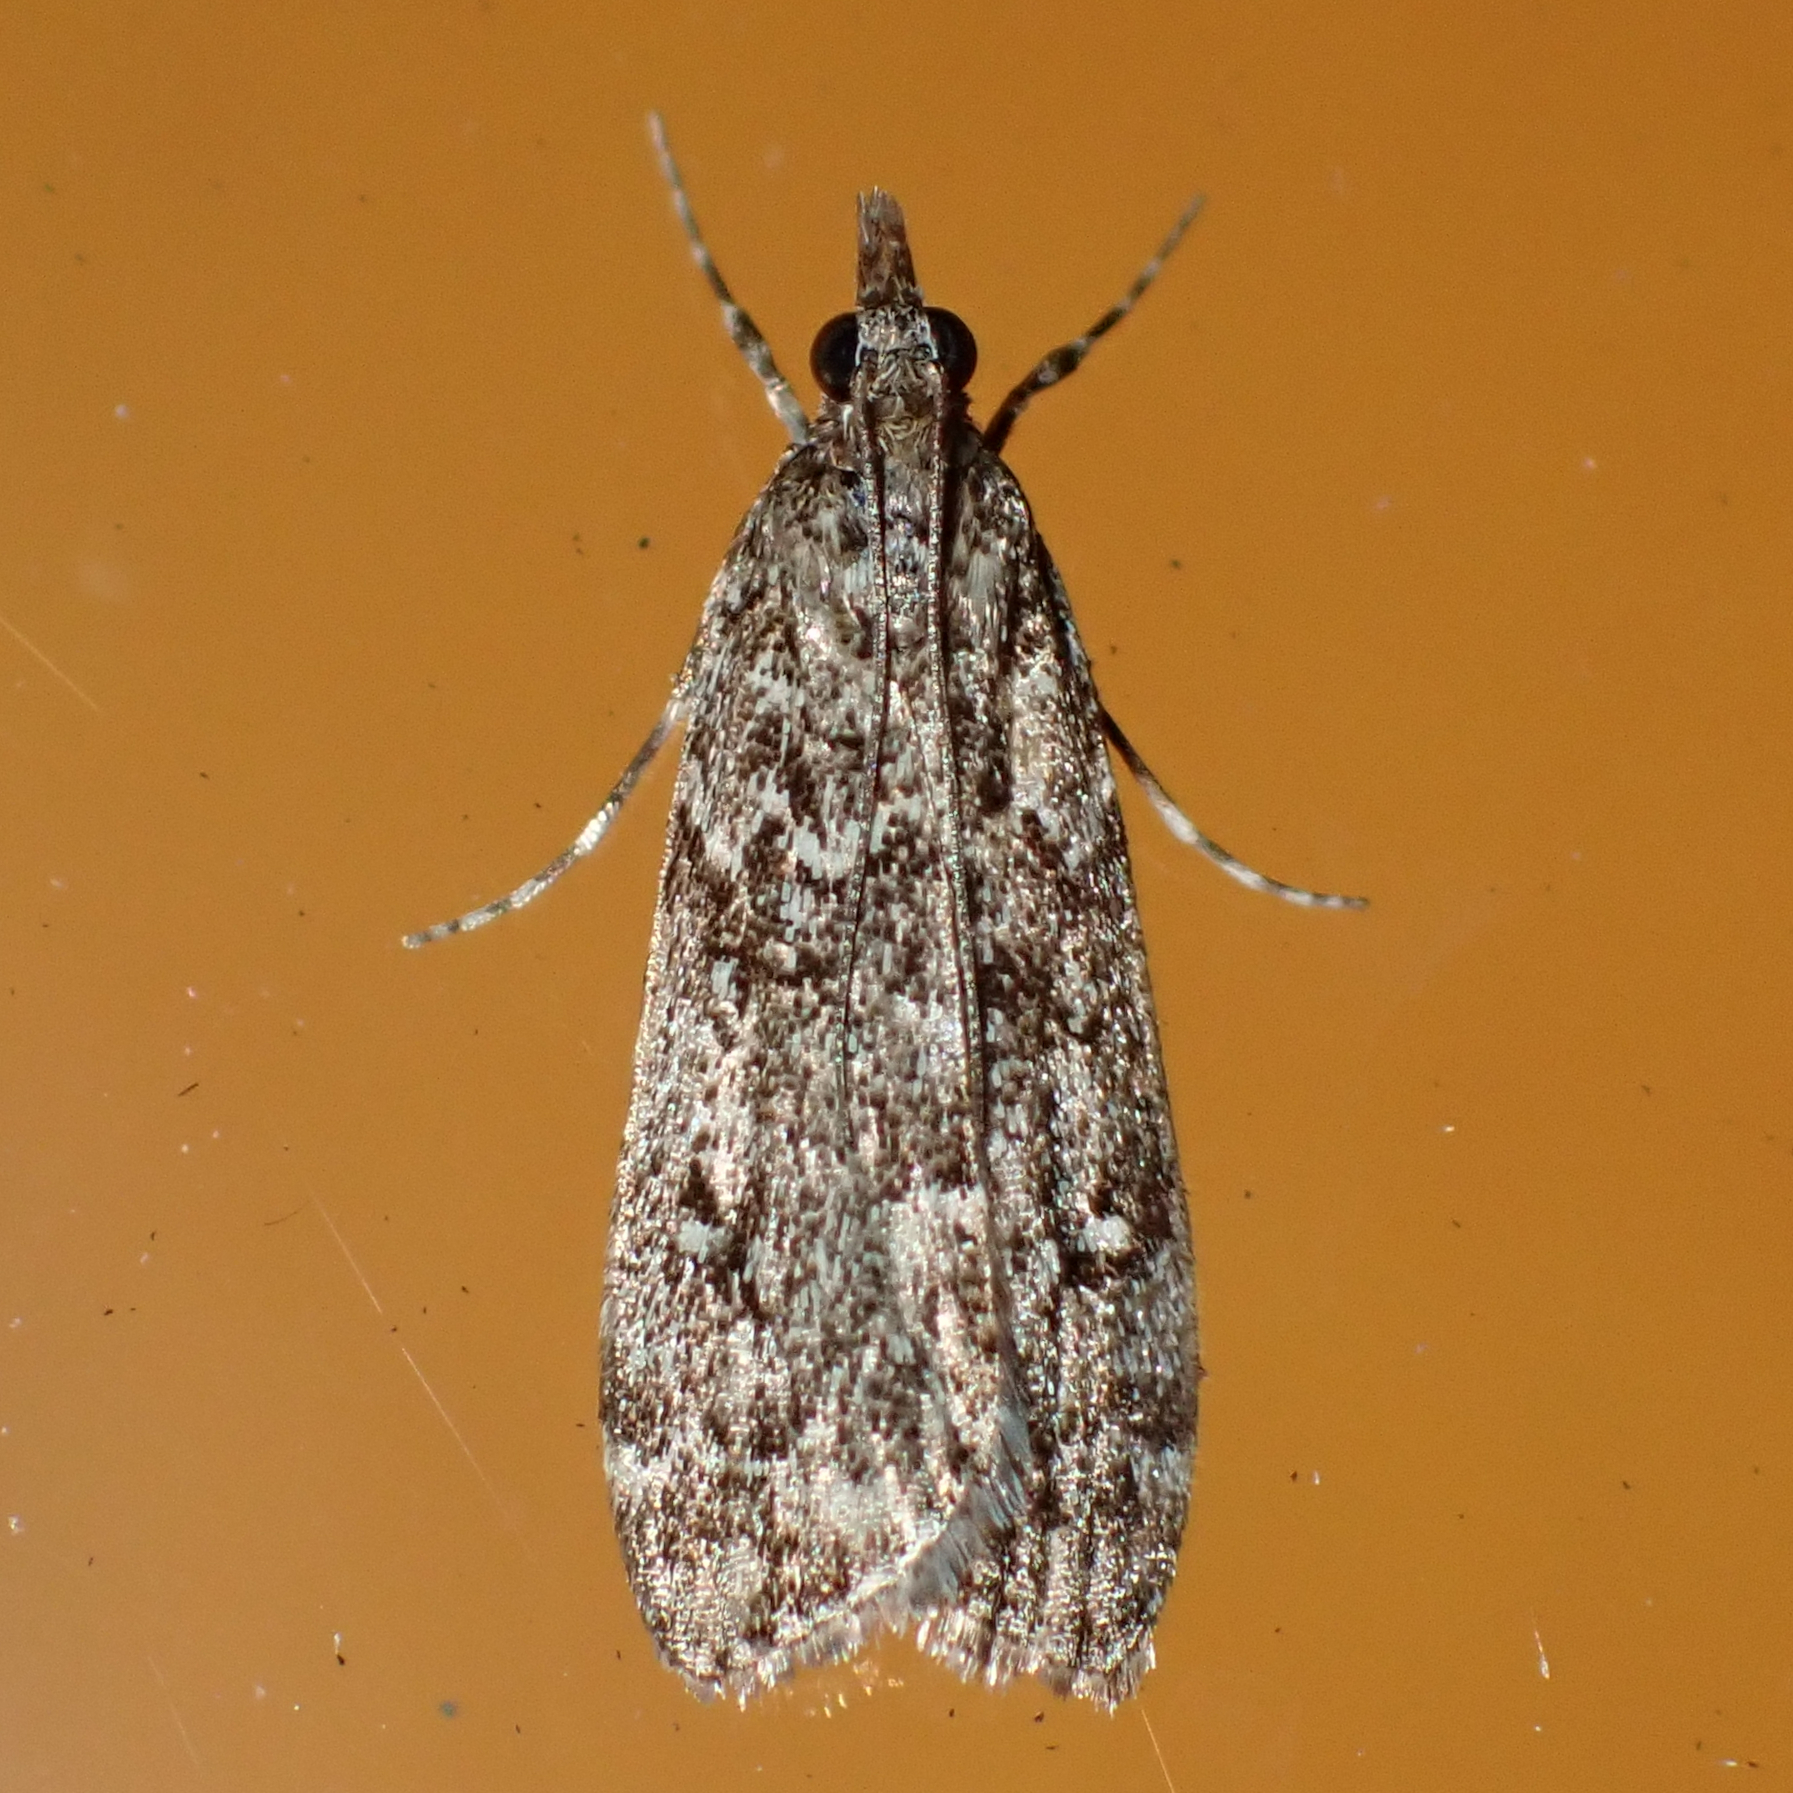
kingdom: Animalia
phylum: Arthropoda
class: Insecta
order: Lepidoptera
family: Crambidae
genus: Eudonia
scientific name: Eudonia philerga
